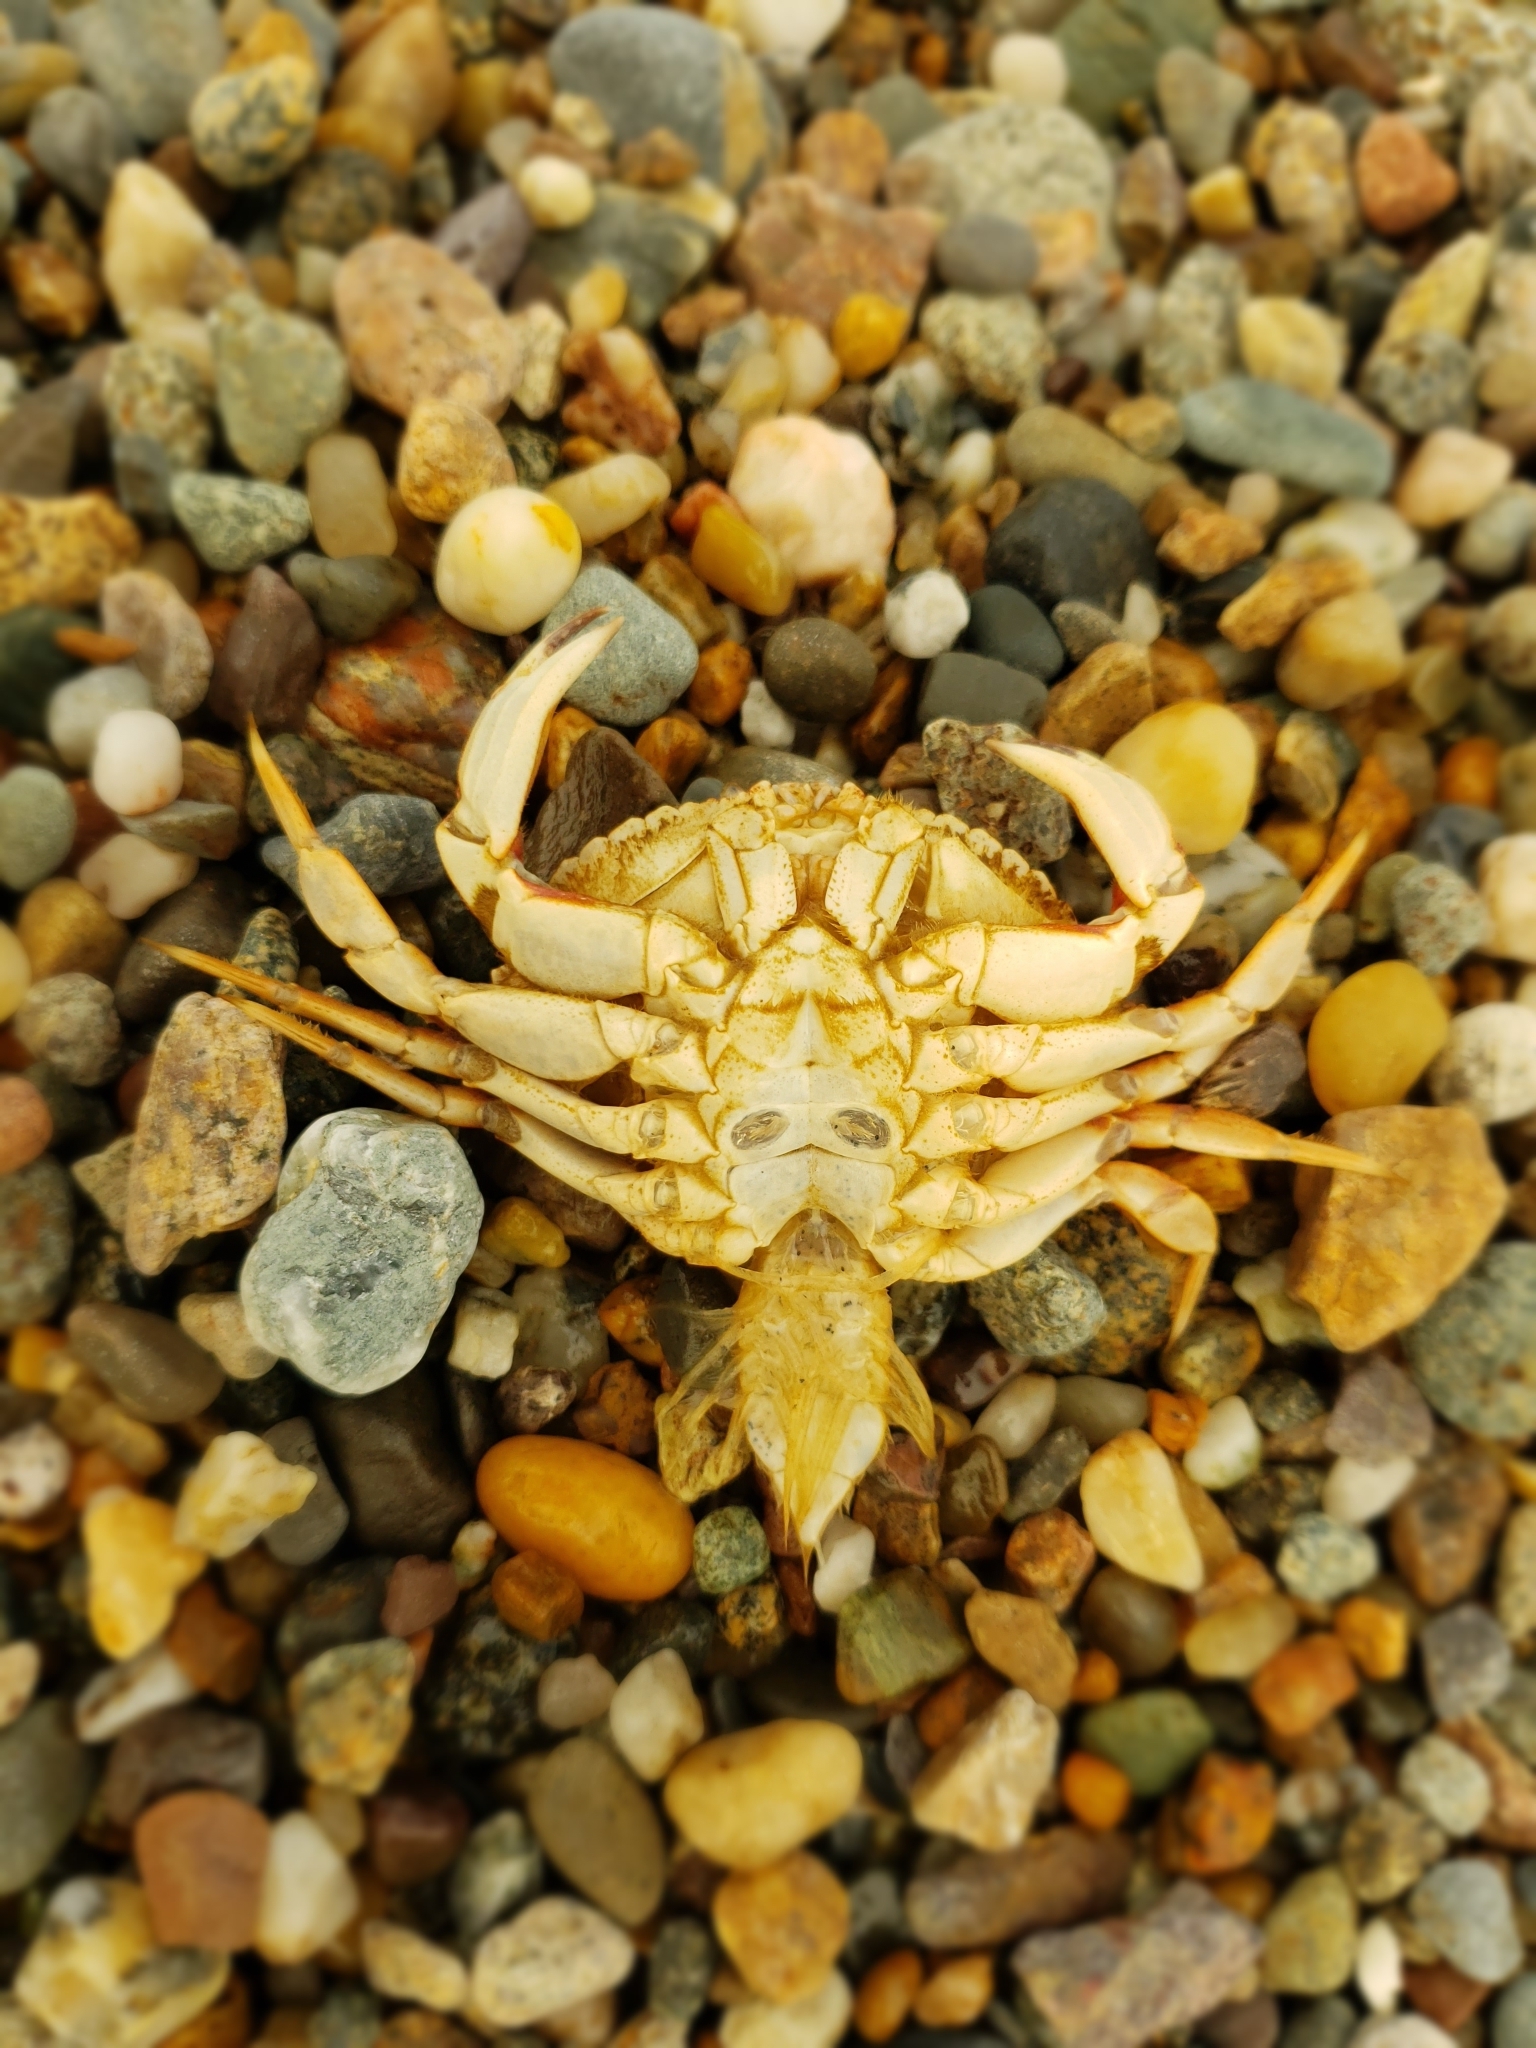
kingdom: Animalia
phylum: Arthropoda
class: Malacostraca
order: Decapoda
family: Cancridae
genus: Cancer
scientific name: Cancer irroratus
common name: Atlantic rock crab
